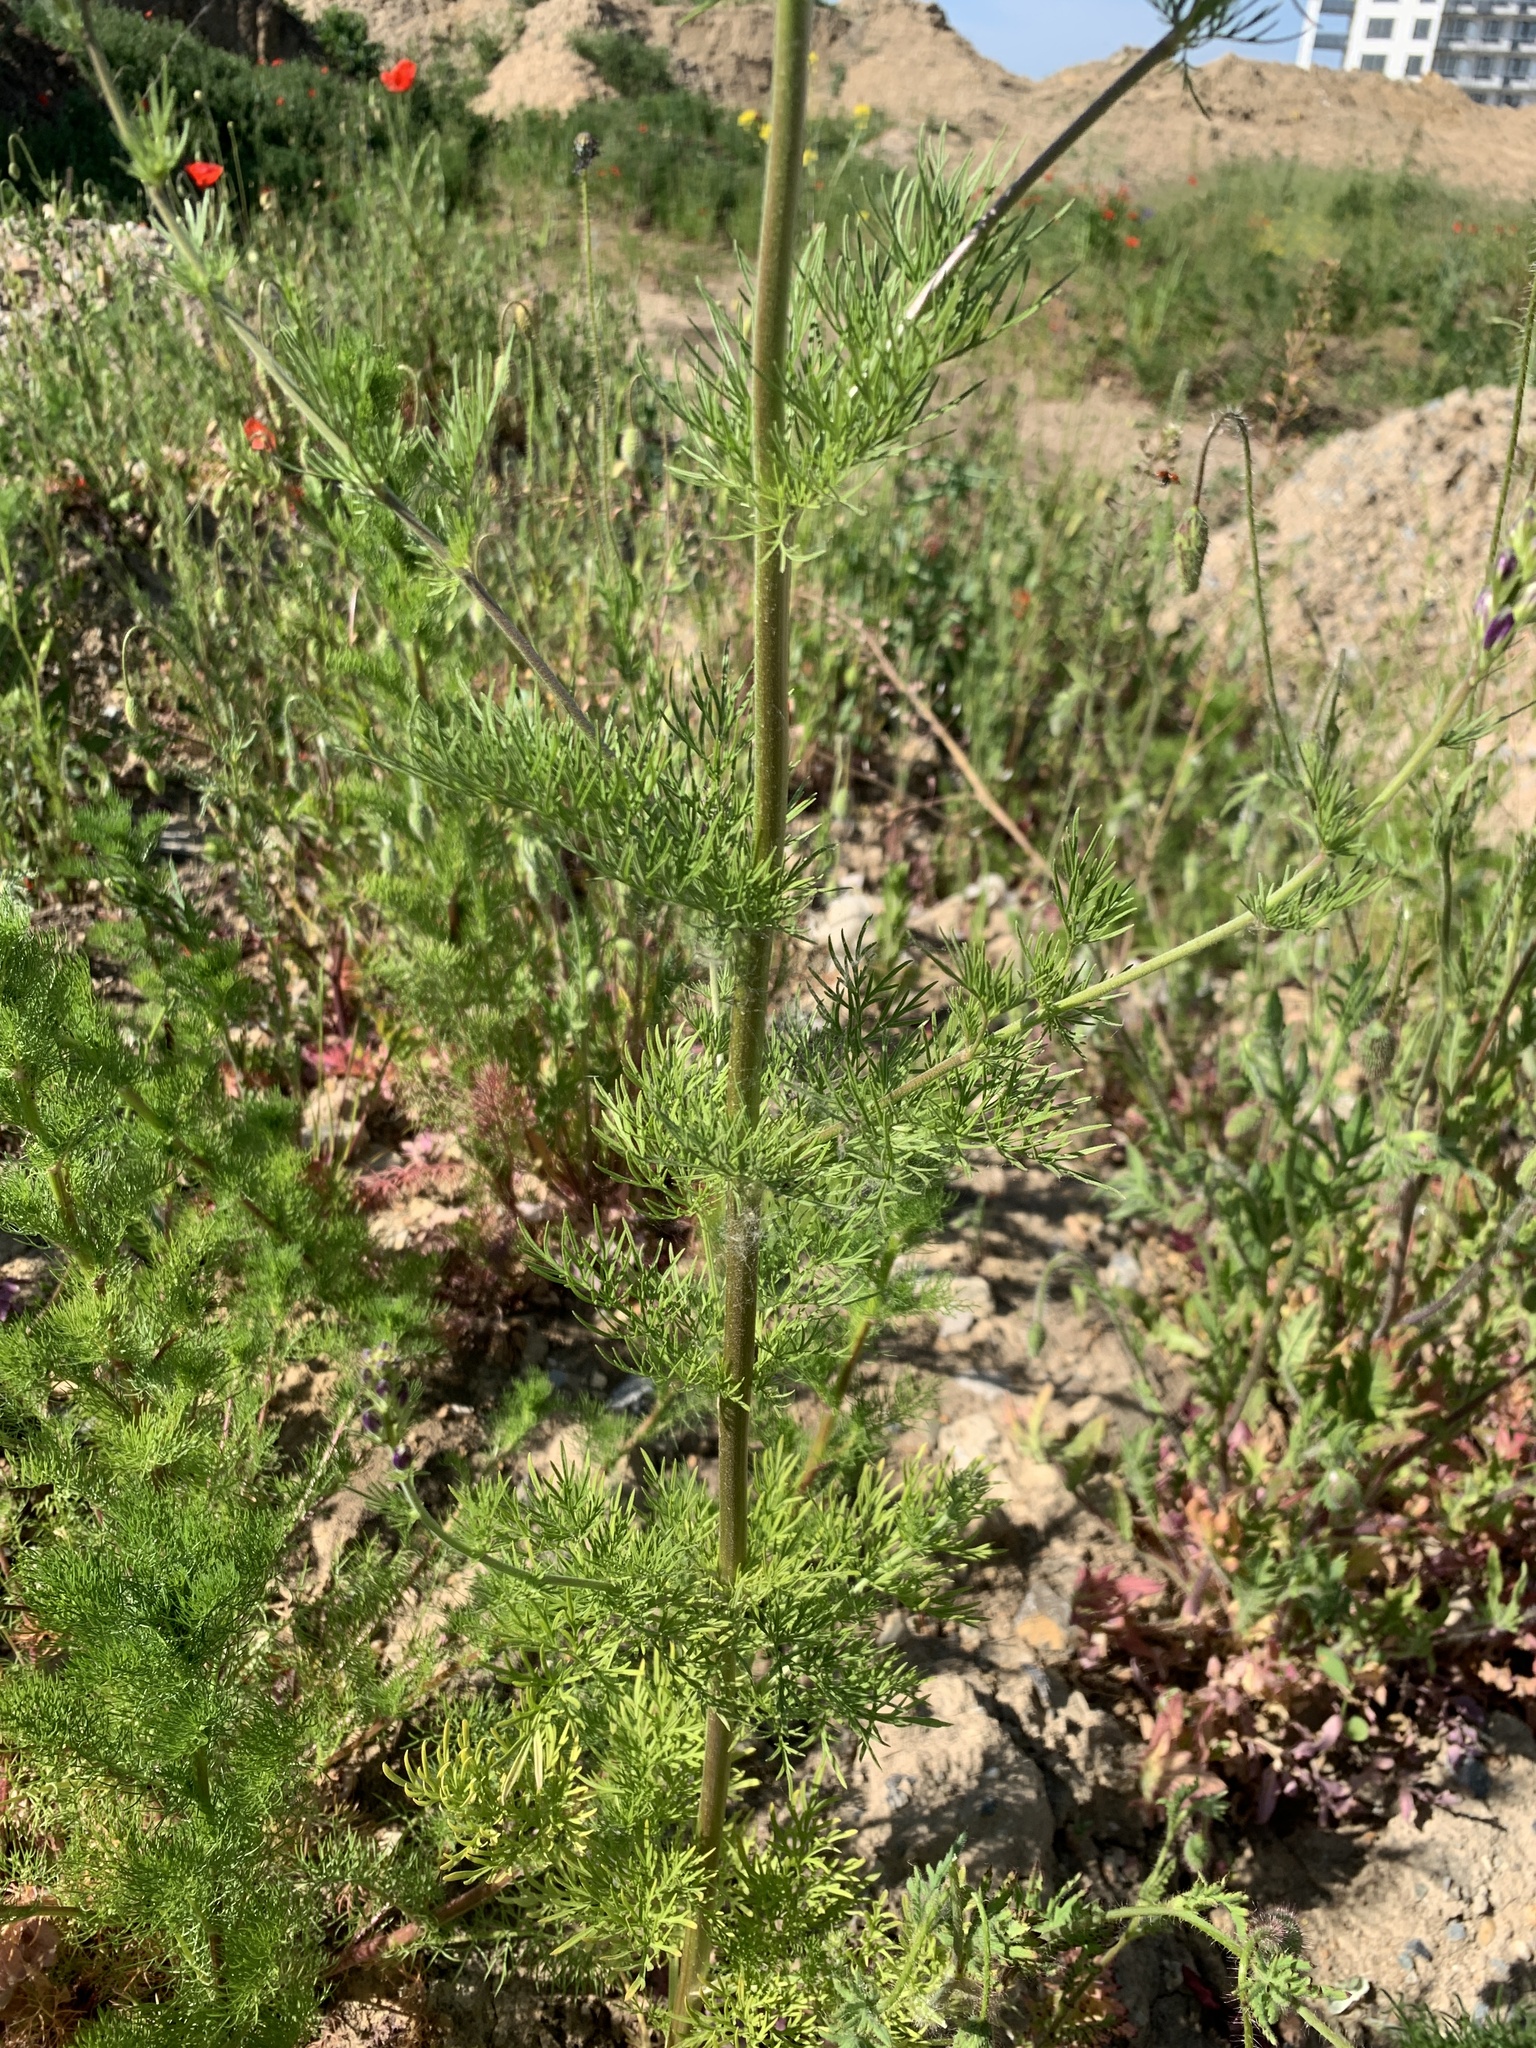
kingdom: Plantae
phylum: Tracheophyta
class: Magnoliopsida
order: Ranunculales
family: Ranunculaceae
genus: Delphinium
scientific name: Delphinium ajacis
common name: Doubtful knight's-spur
